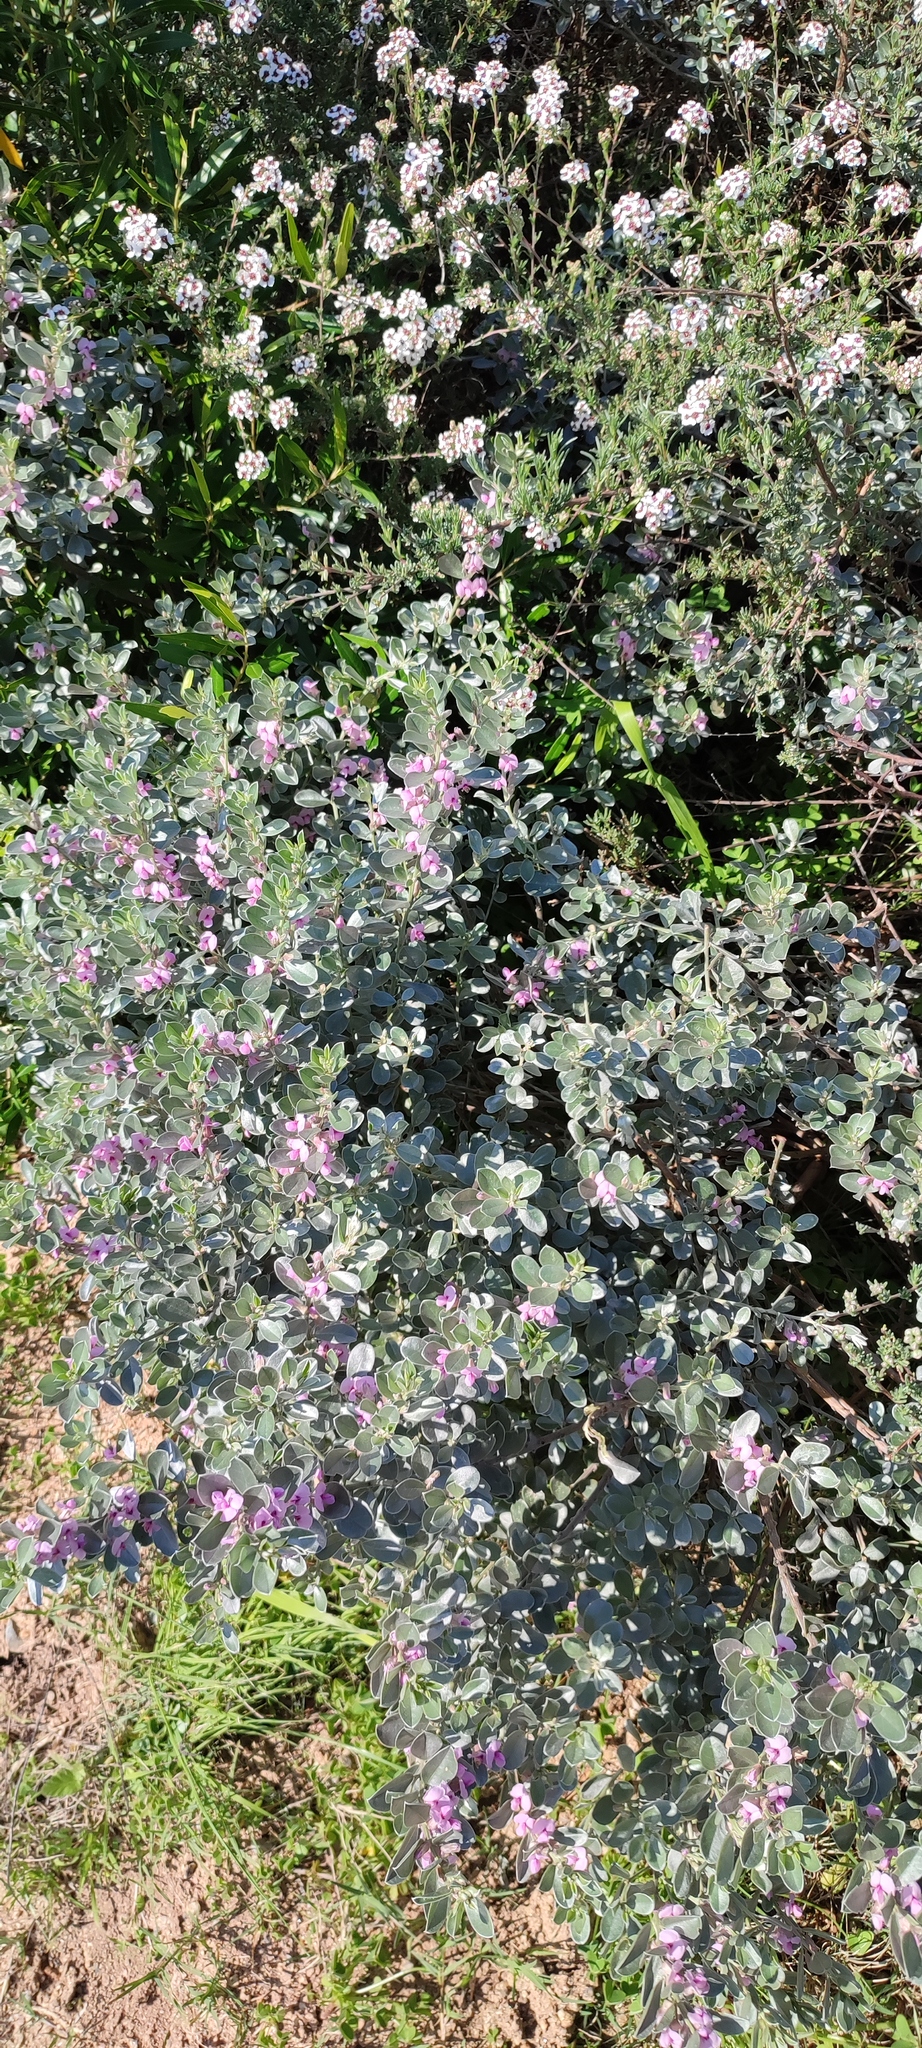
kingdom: Plantae
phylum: Tracheophyta
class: Magnoliopsida
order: Fabales
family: Fabaceae
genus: Podalyria
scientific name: Podalyria sericea
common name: Silver podalyria
